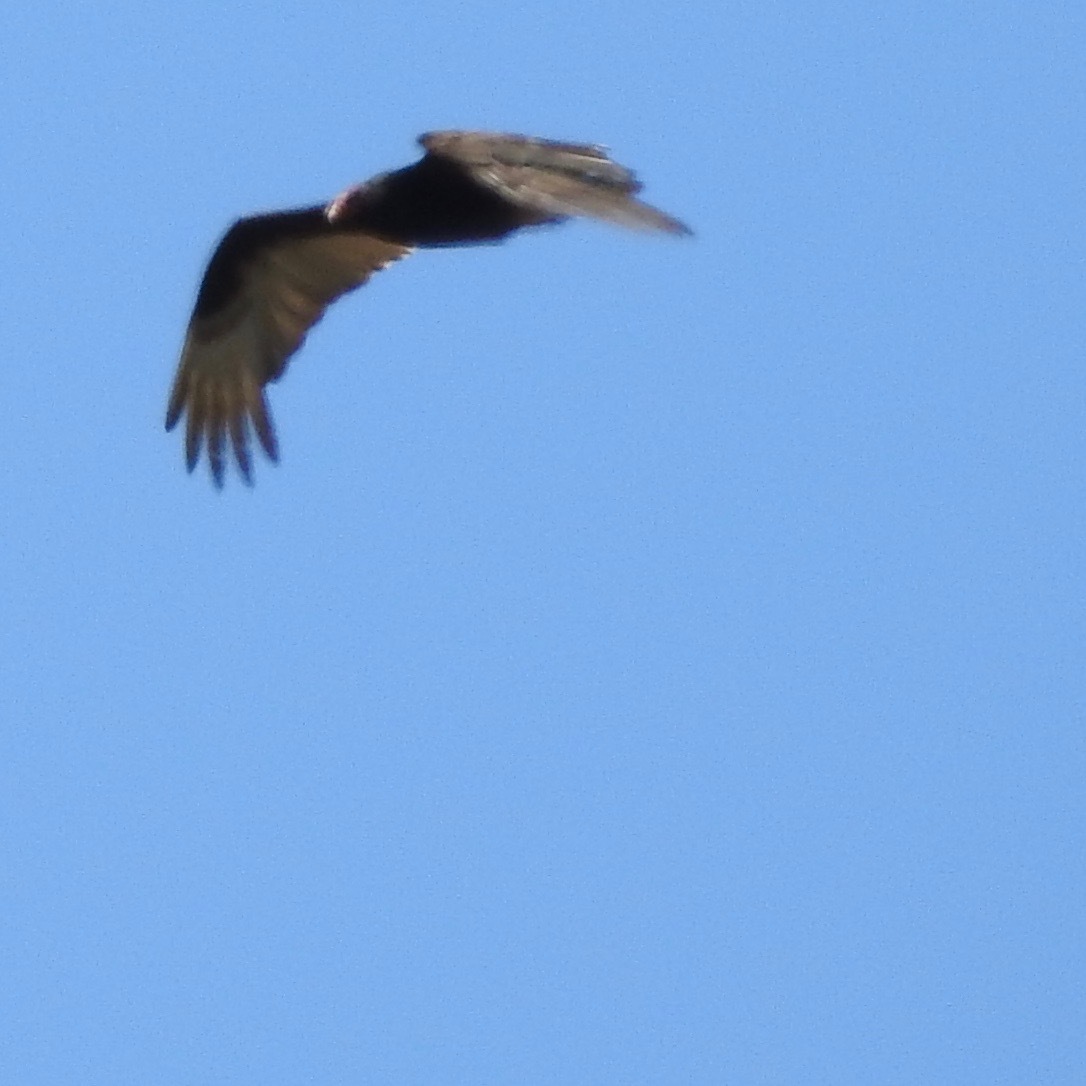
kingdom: Animalia
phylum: Chordata
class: Aves
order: Accipitriformes
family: Cathartidae
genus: Cathartes
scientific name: Cathartes aura
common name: Turkey vulture
